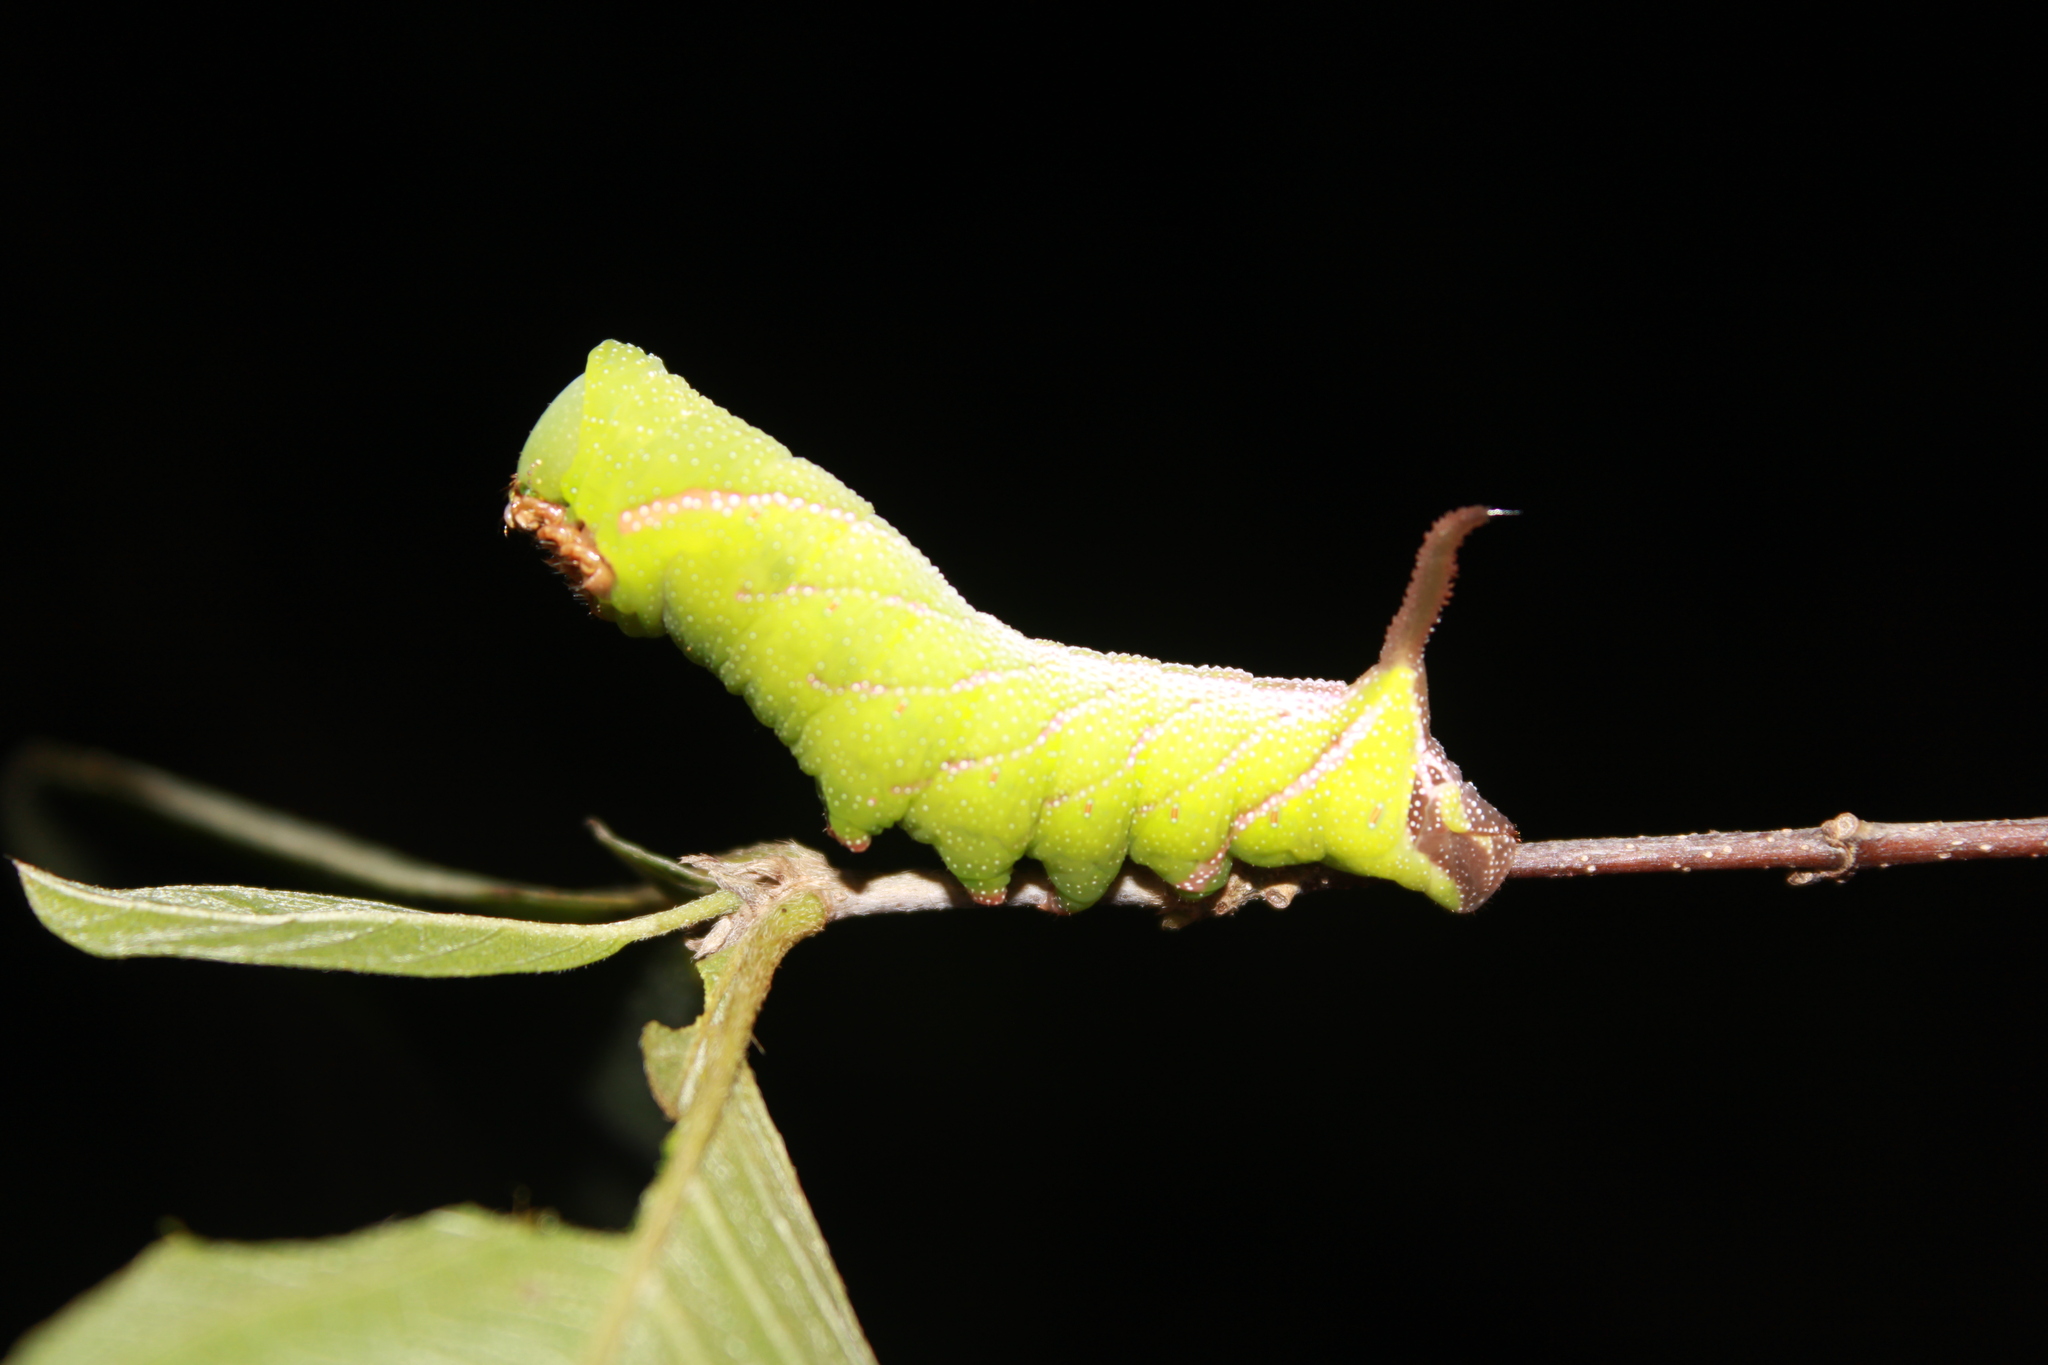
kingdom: Animalia
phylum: Arthropoda
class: Insecta
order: Lepidoptera
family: Sphingidae
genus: Eupyrrhoglossum
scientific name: Eupyrrhoglossum sagra
